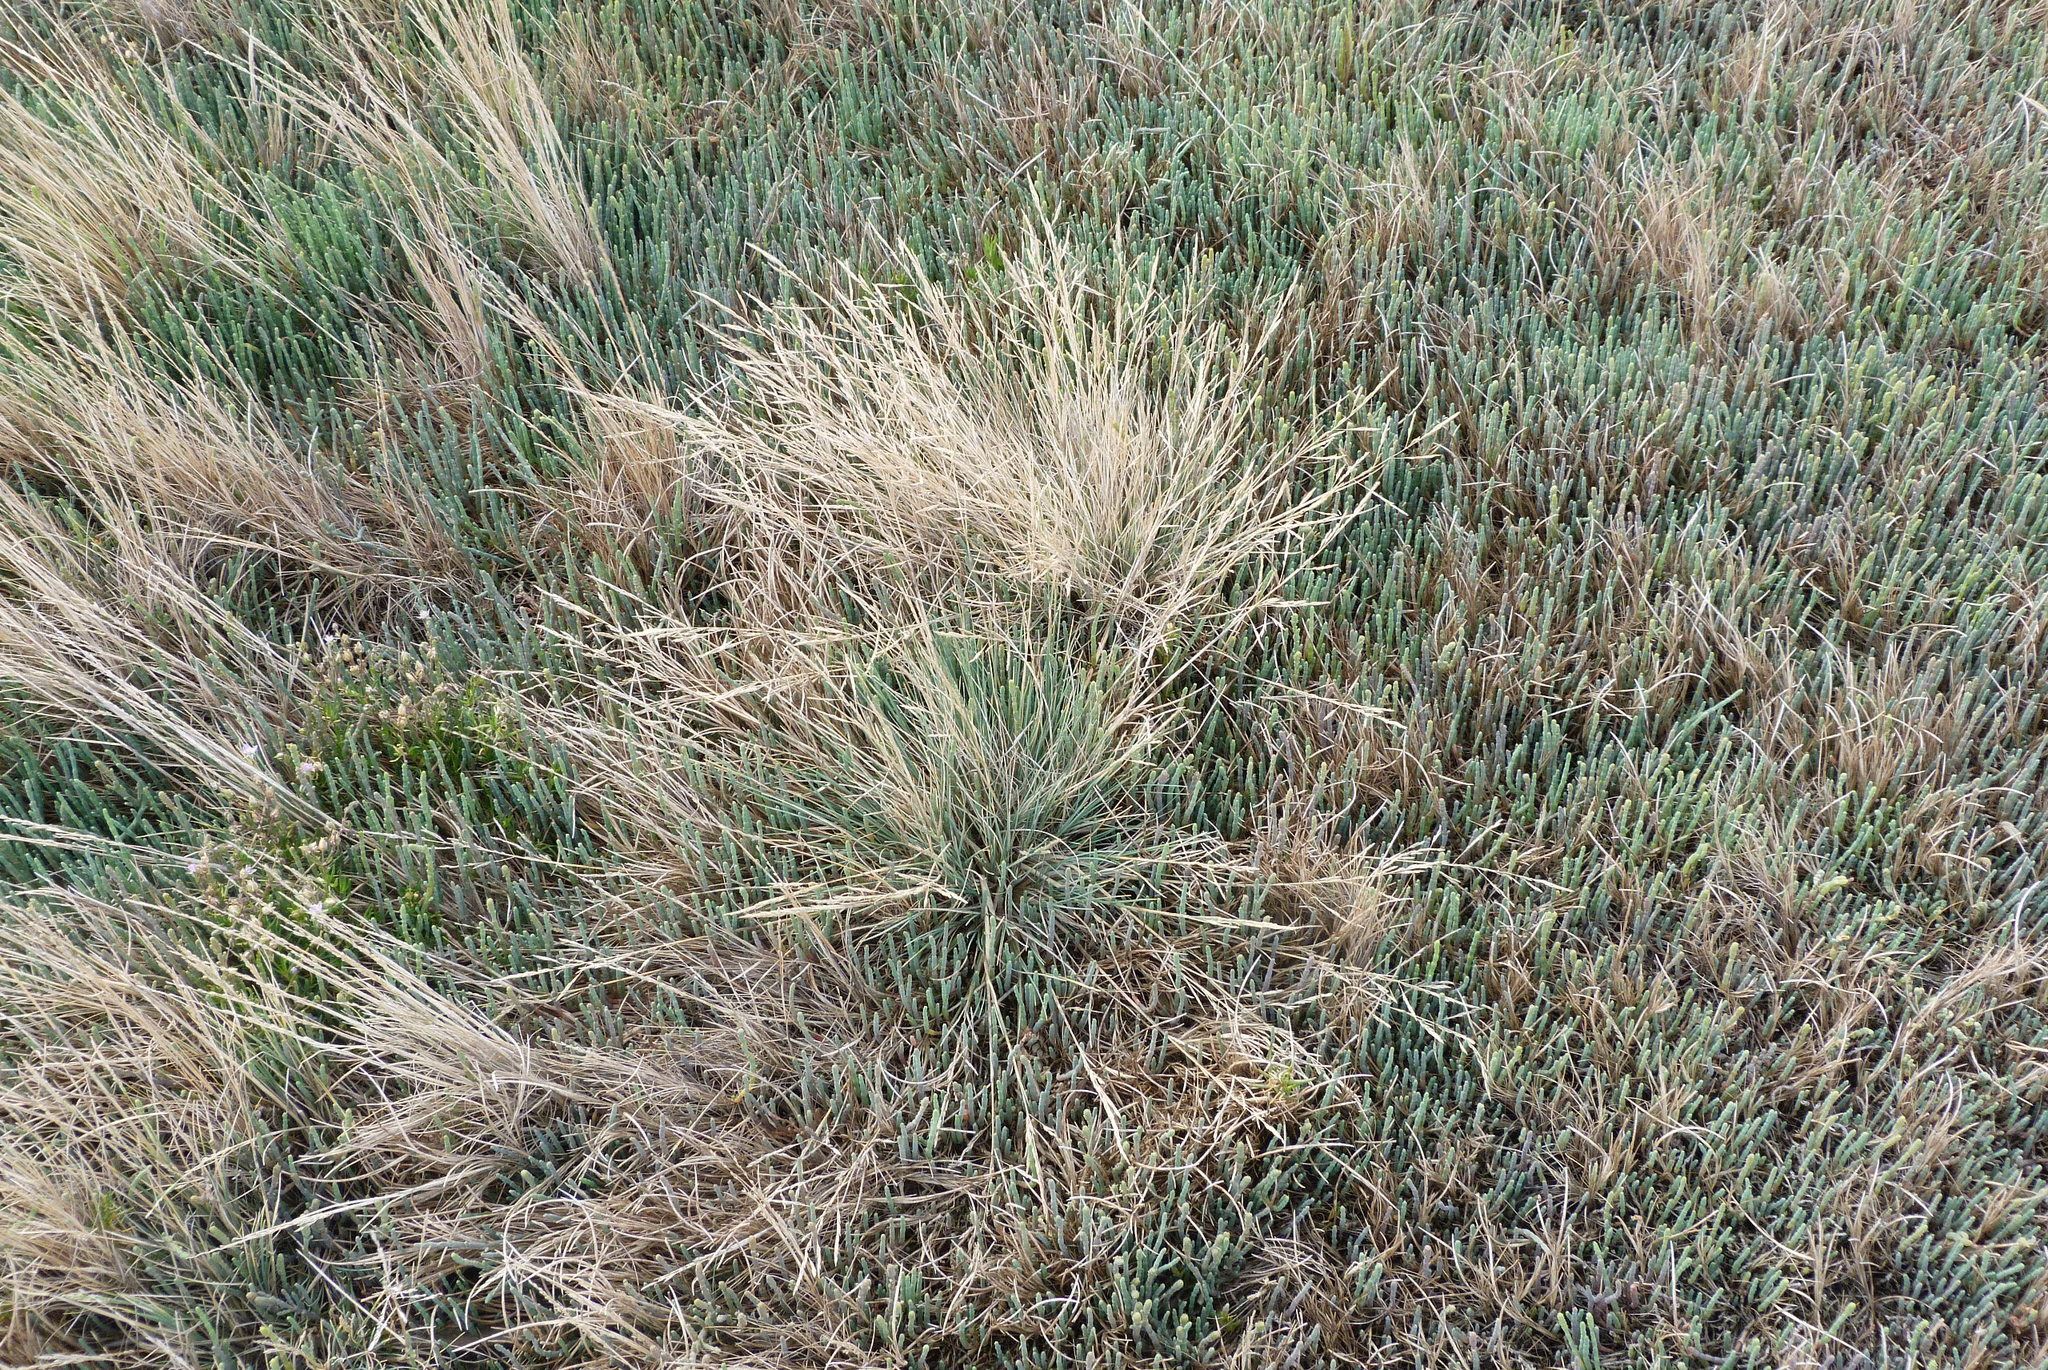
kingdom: Plantae
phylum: Tracheophyta
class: Liliopsida
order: Poales
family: Poaceae
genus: Puccinellia
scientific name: Puccinellia stricta
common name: Australian saltmarsh grass
